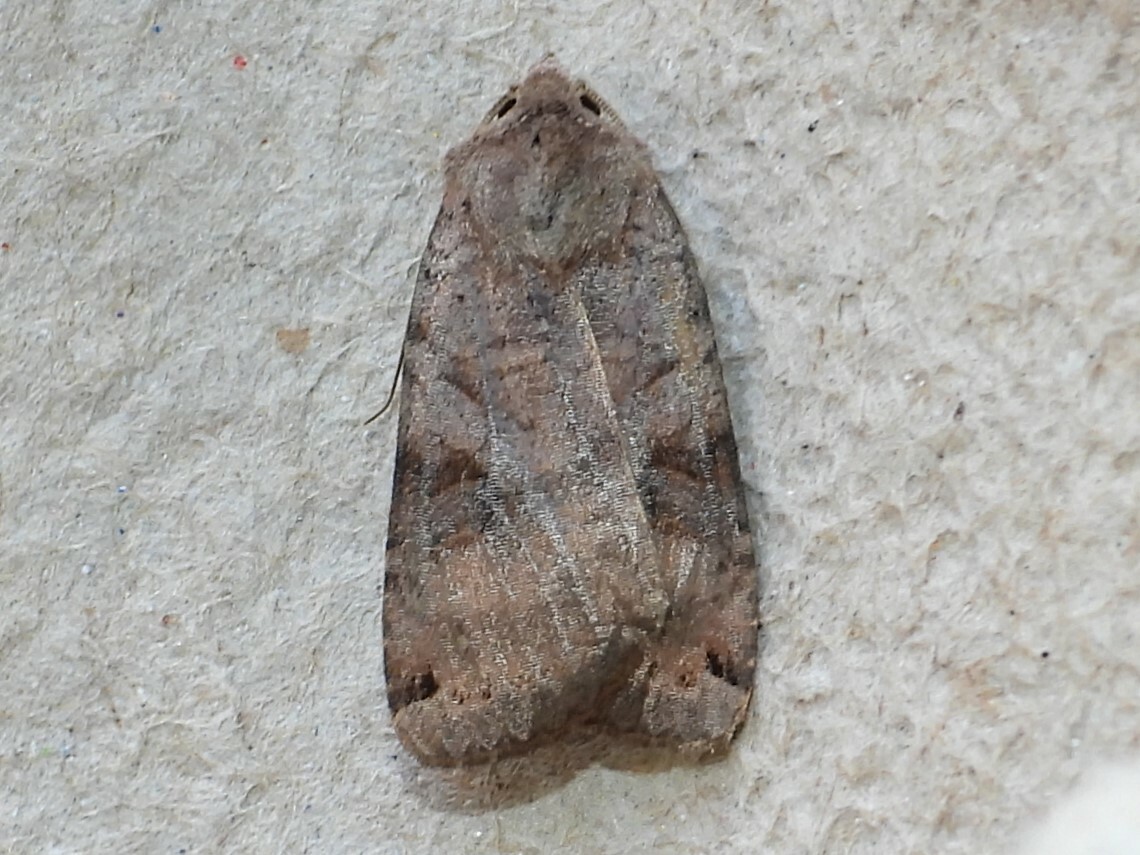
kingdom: Animalia
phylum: Arthropoda
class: Insecta
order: Lepidoptera
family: Noctuidae
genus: Xestia
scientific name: Xestia smithii
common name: Smith's dart
